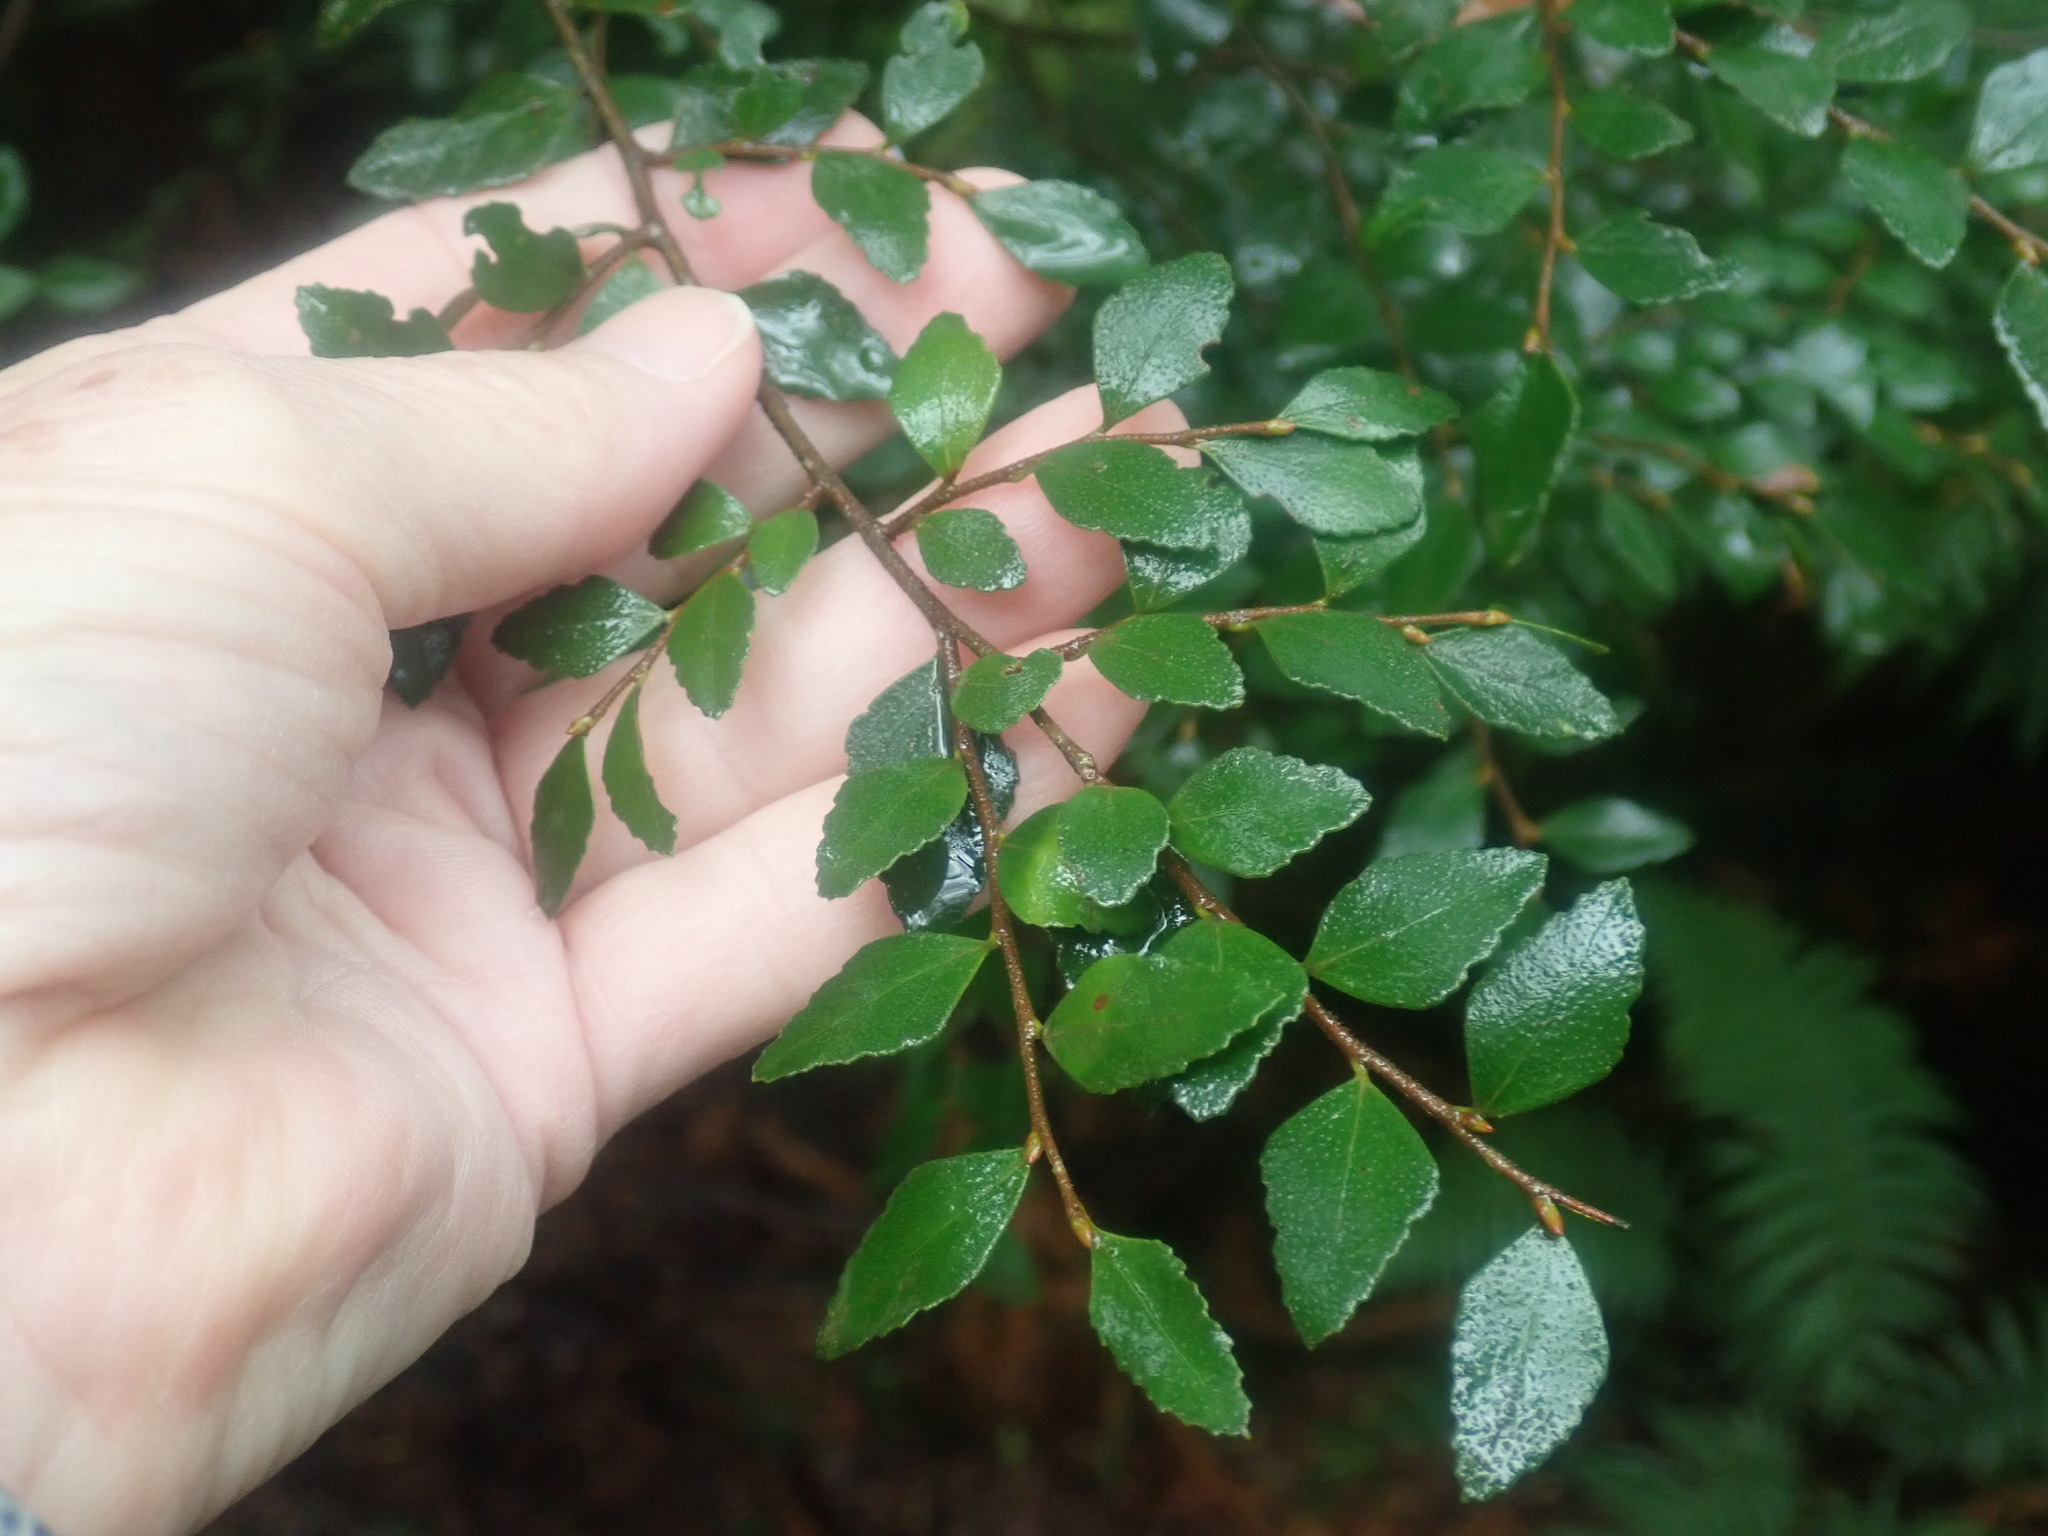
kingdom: Plantae
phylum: Tracheophyta
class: Magnoliopsida
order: Fagales
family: Nothofagaceae
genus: Nothofagus
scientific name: Nothofagus cunninghamii
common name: Myrtle beech
